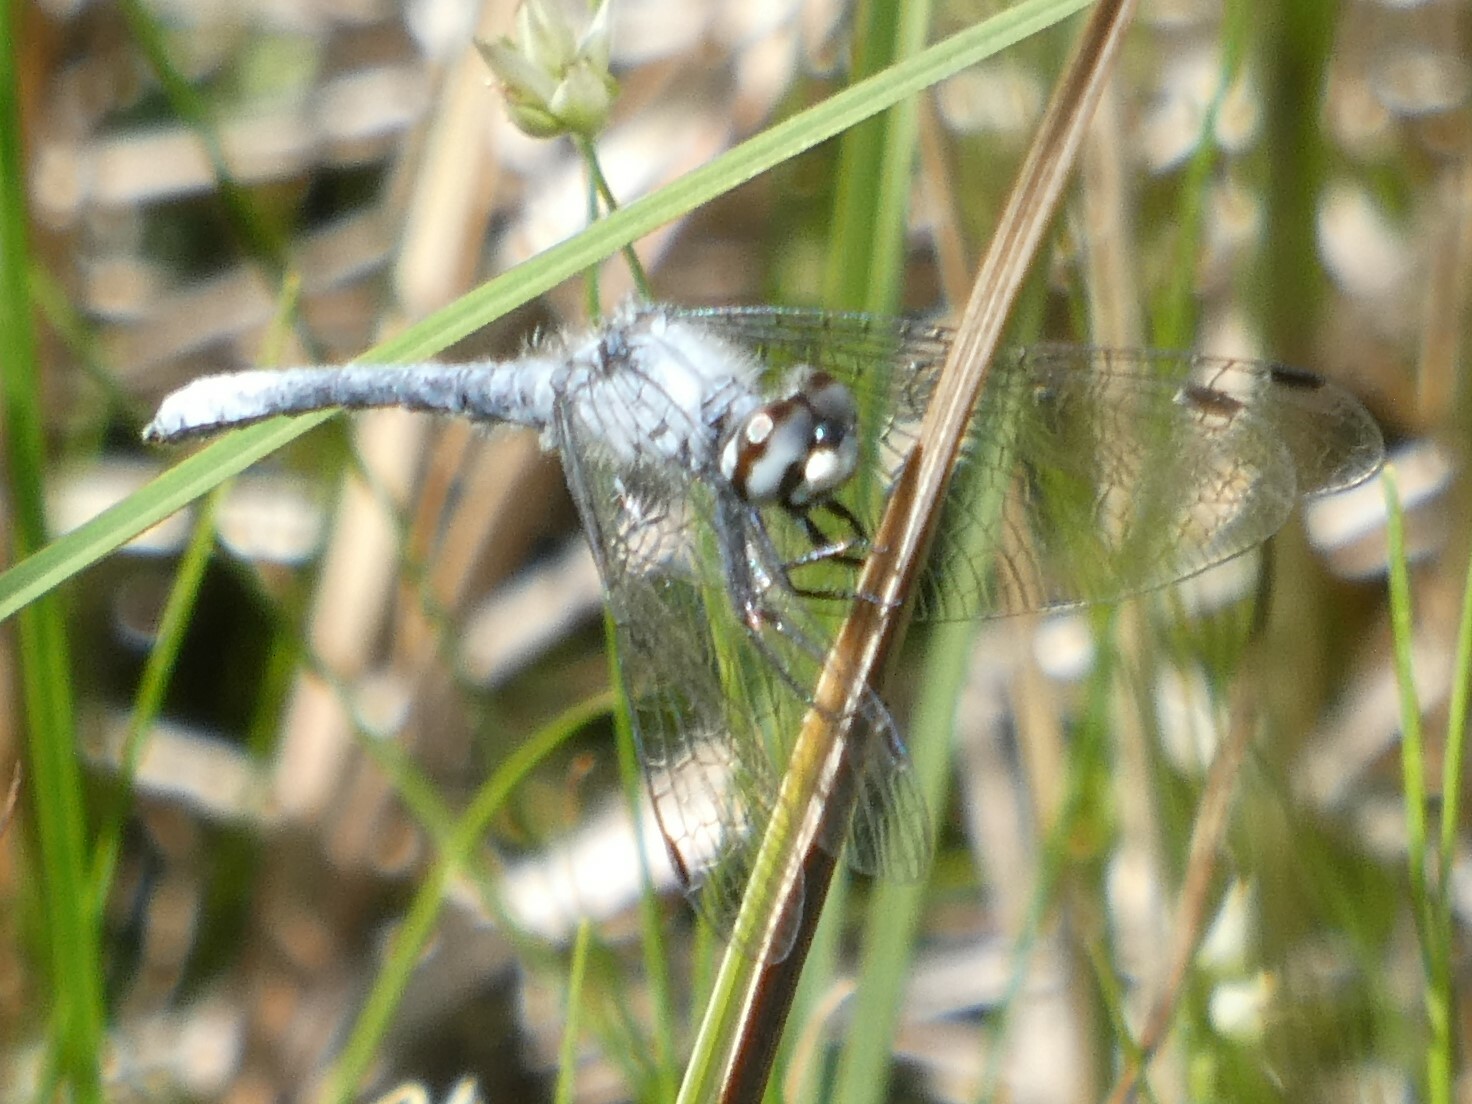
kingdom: Animalia
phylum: Arthropoda
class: Insecta
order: Odonata
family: Libellulidae
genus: Nannothemis
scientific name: Nannothemis bella
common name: Elfin skimmer
